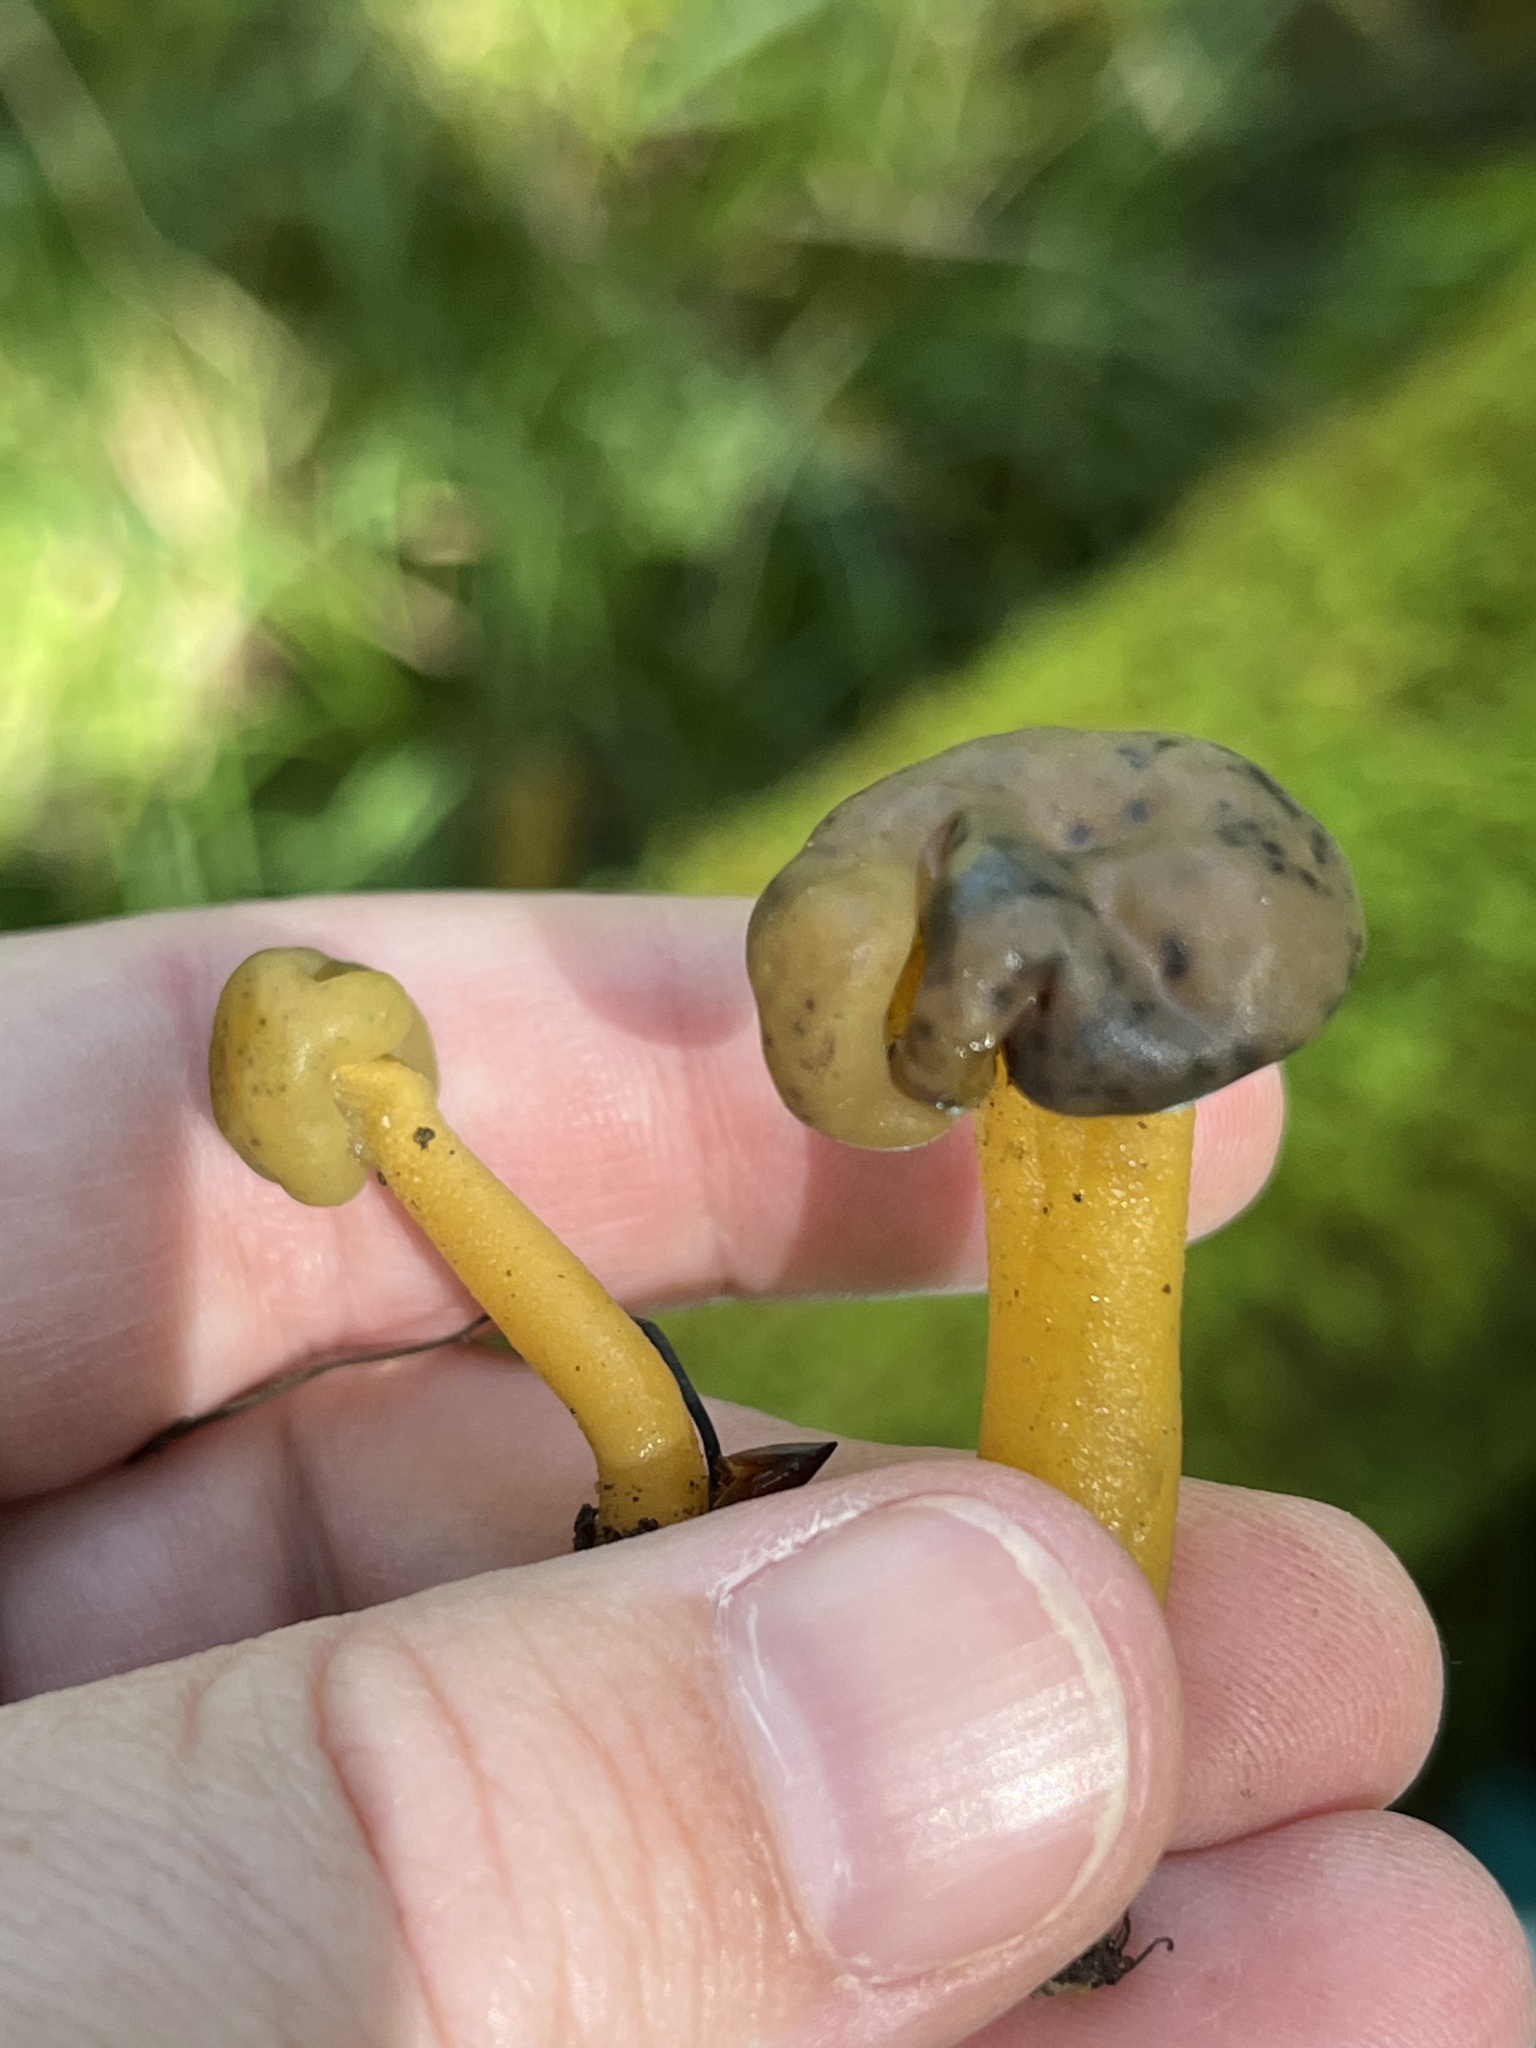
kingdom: Fungi
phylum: Ascomycota
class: Leotiomycetes
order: Leotiales
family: Leotiaceae
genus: Leotia
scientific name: Leotia lubrica
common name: Jellybaby
